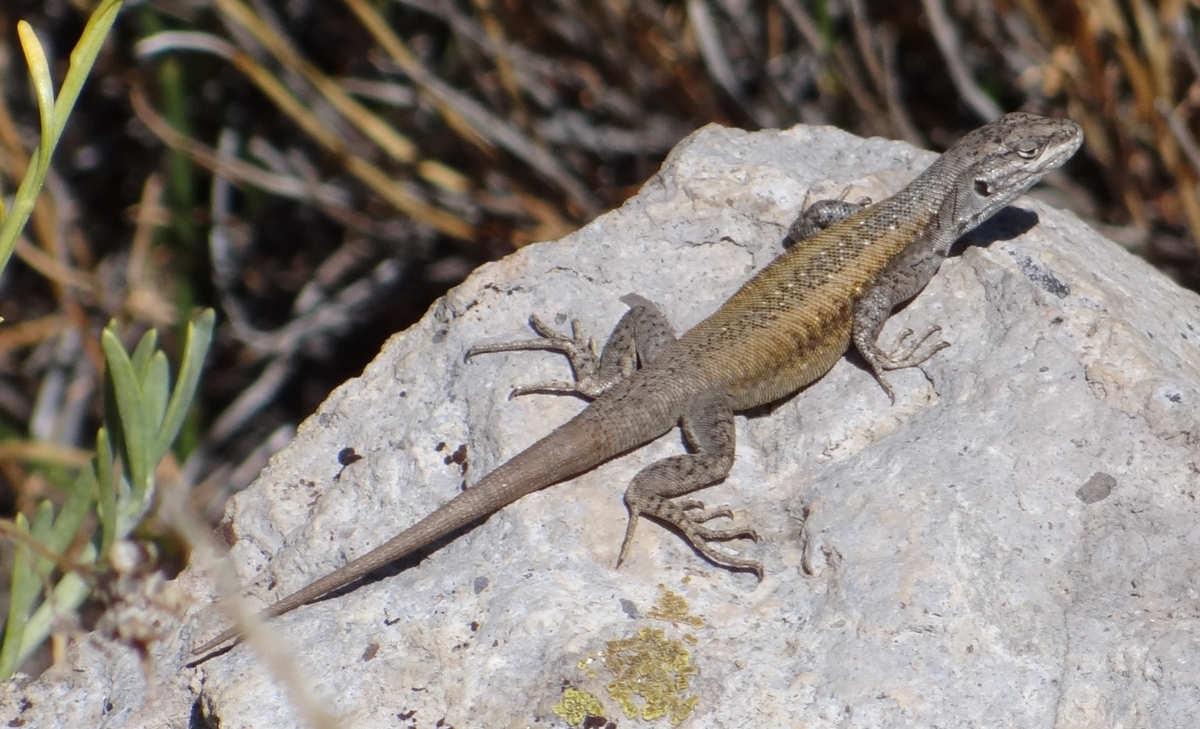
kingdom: Animalia
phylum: Chordata
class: Squamata
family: Liolaemidae
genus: Liolaemus
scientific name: Liolaemus smaug
